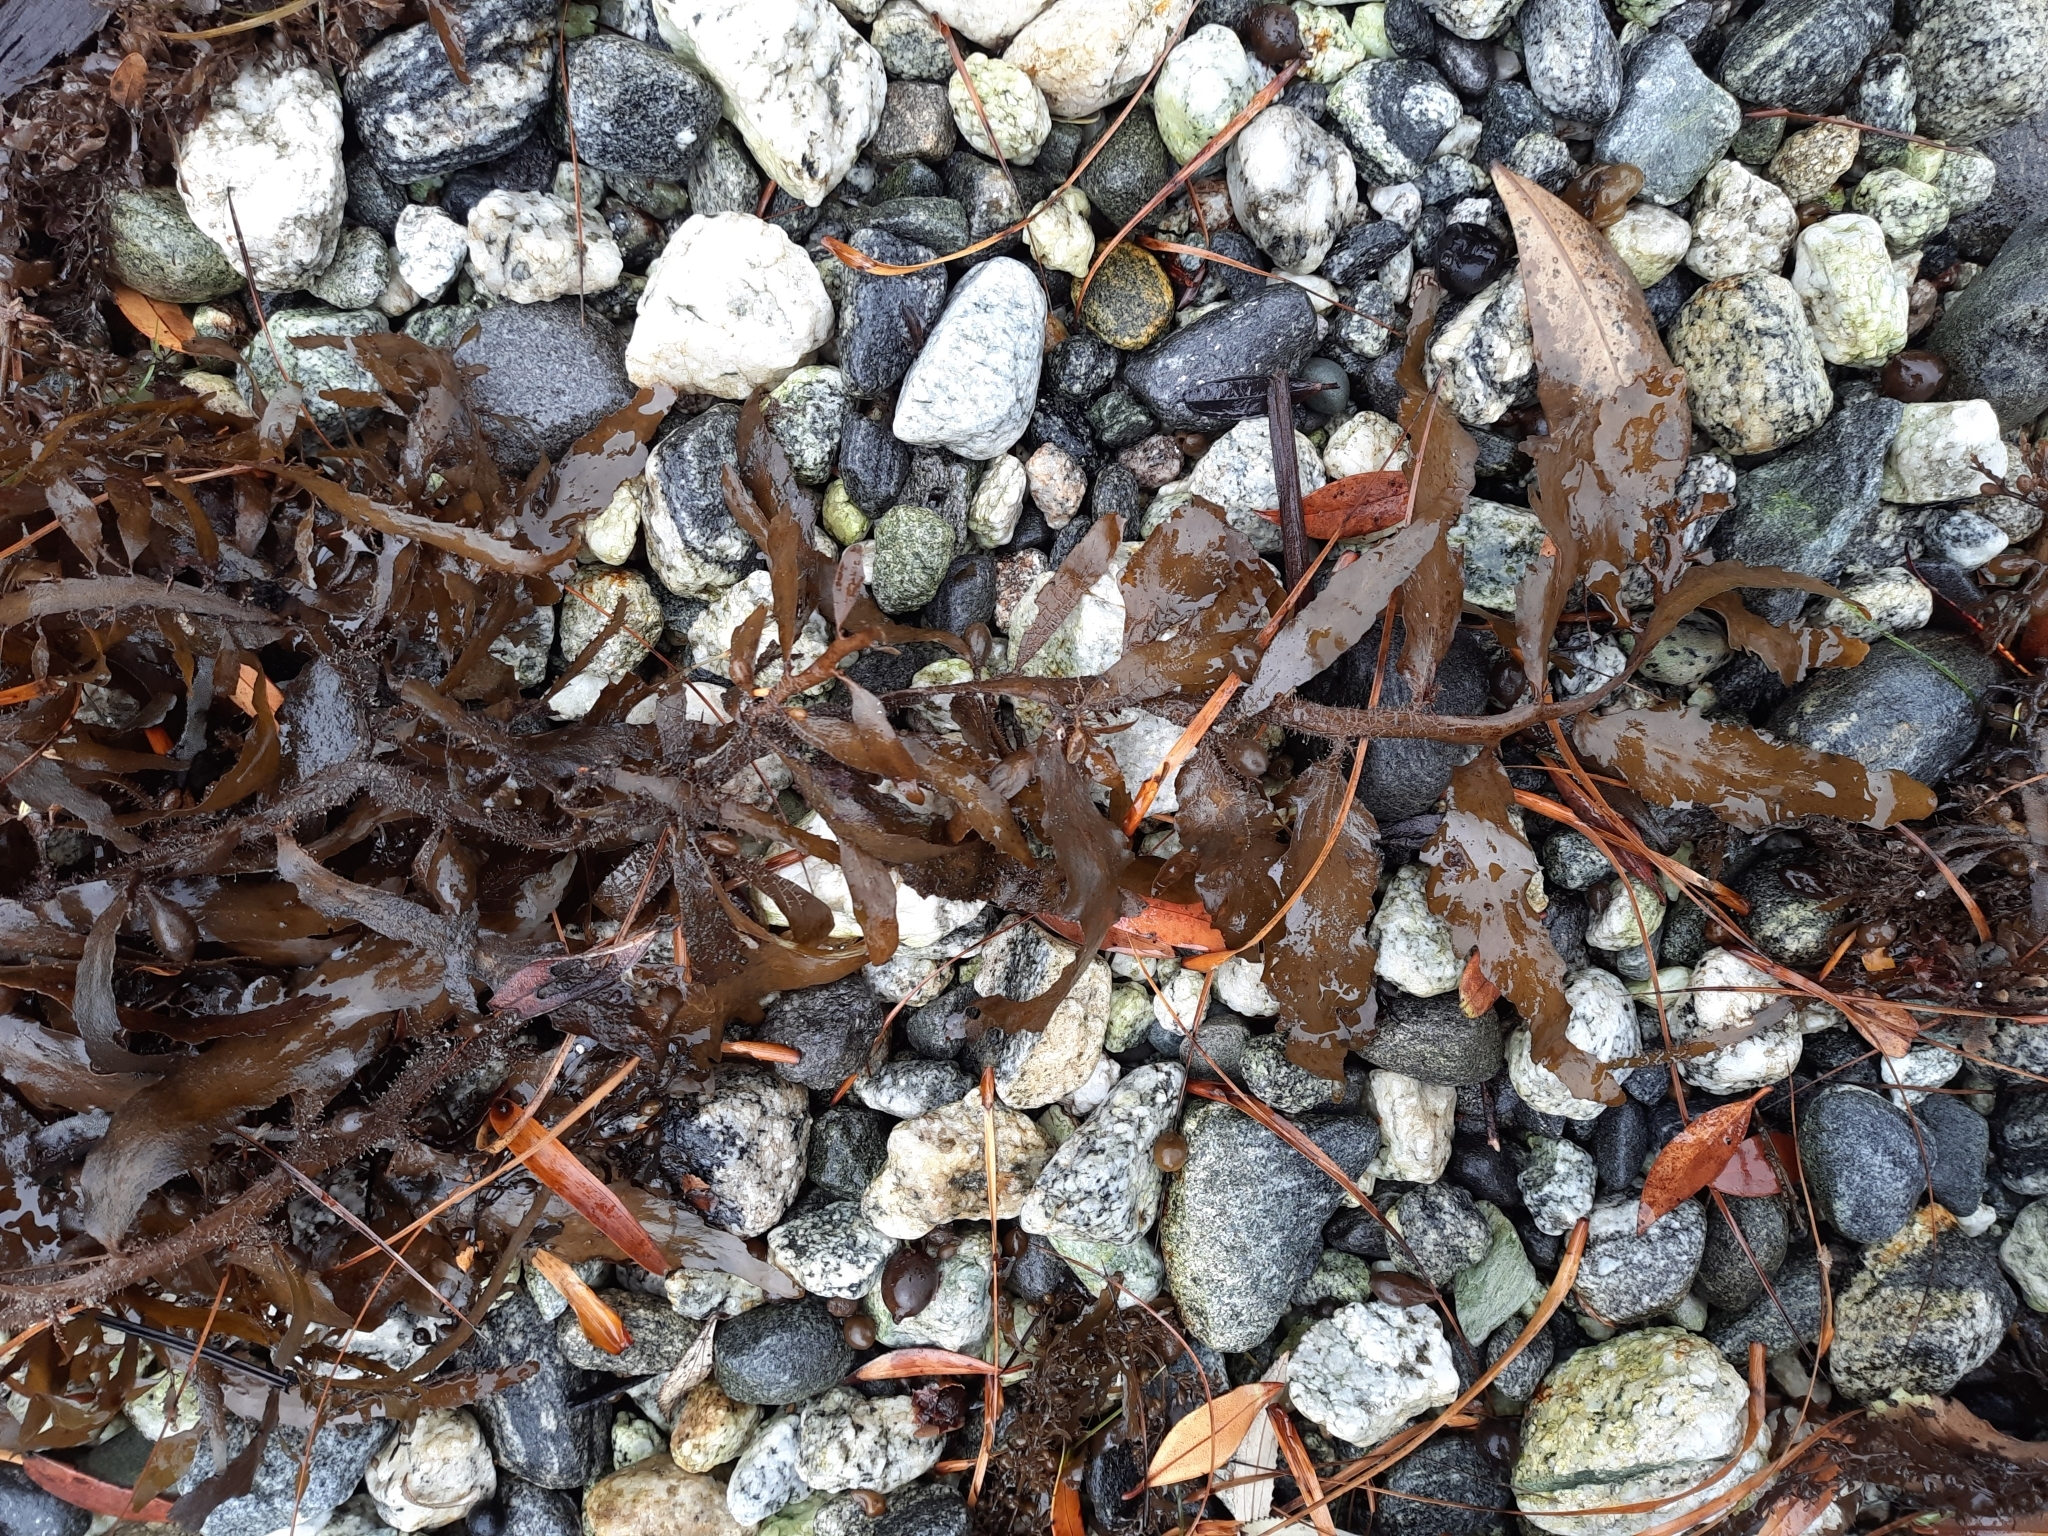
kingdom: Chromista
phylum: Ochrophyta
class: Phaeophyceae
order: Fucales
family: Sargassaceae
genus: Carpophyllum
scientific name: Carpophyllum flexuosum
